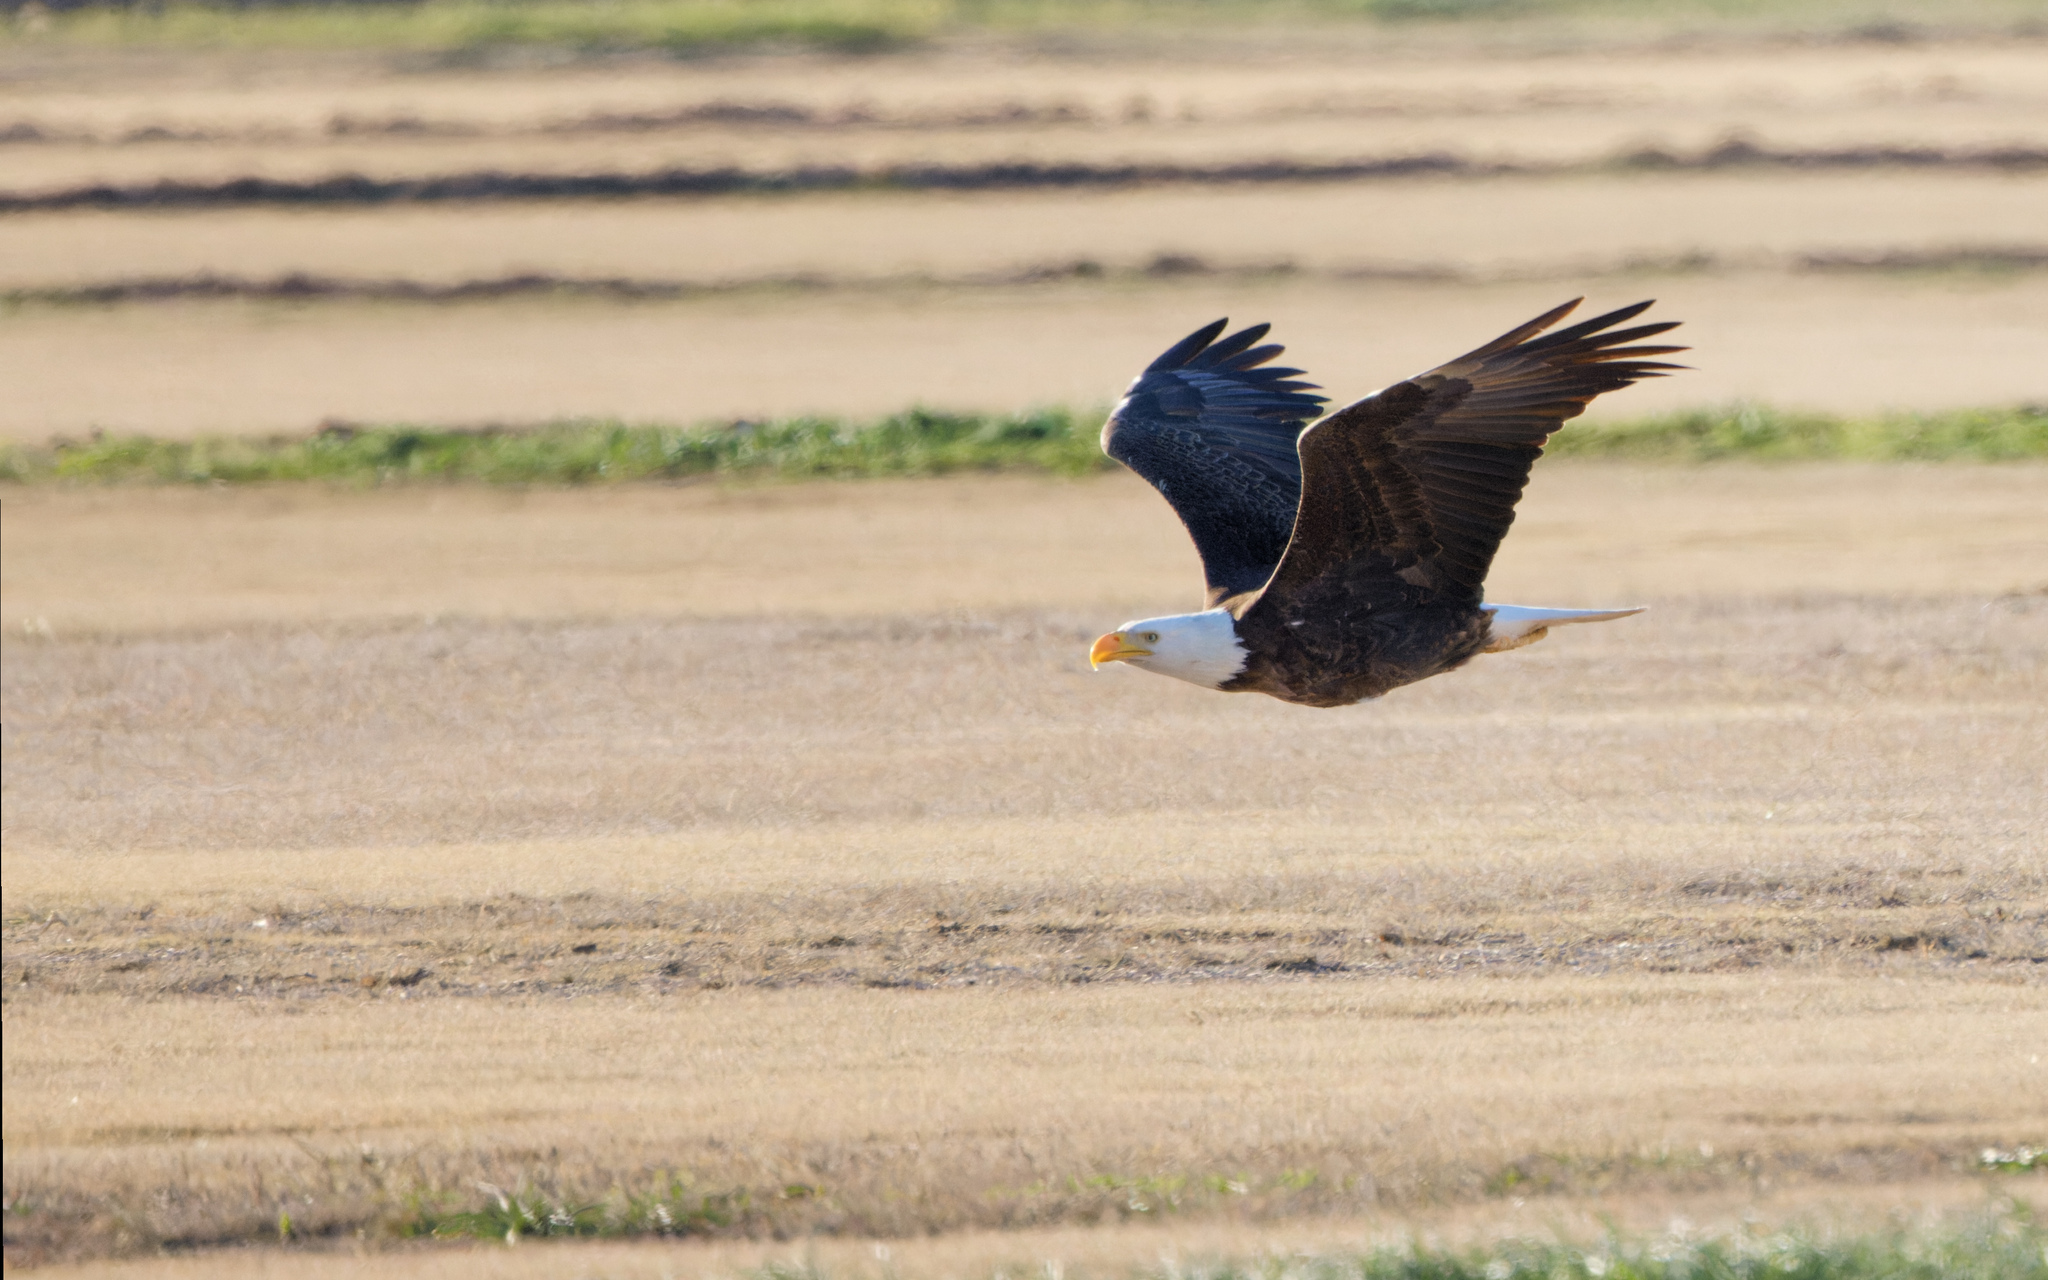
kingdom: Animalia
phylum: Chordata
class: Aves
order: Accipitriformes
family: Accipitridae
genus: Haliaeetus
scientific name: Haliaeetus leucocephalus
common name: Bald eagle
